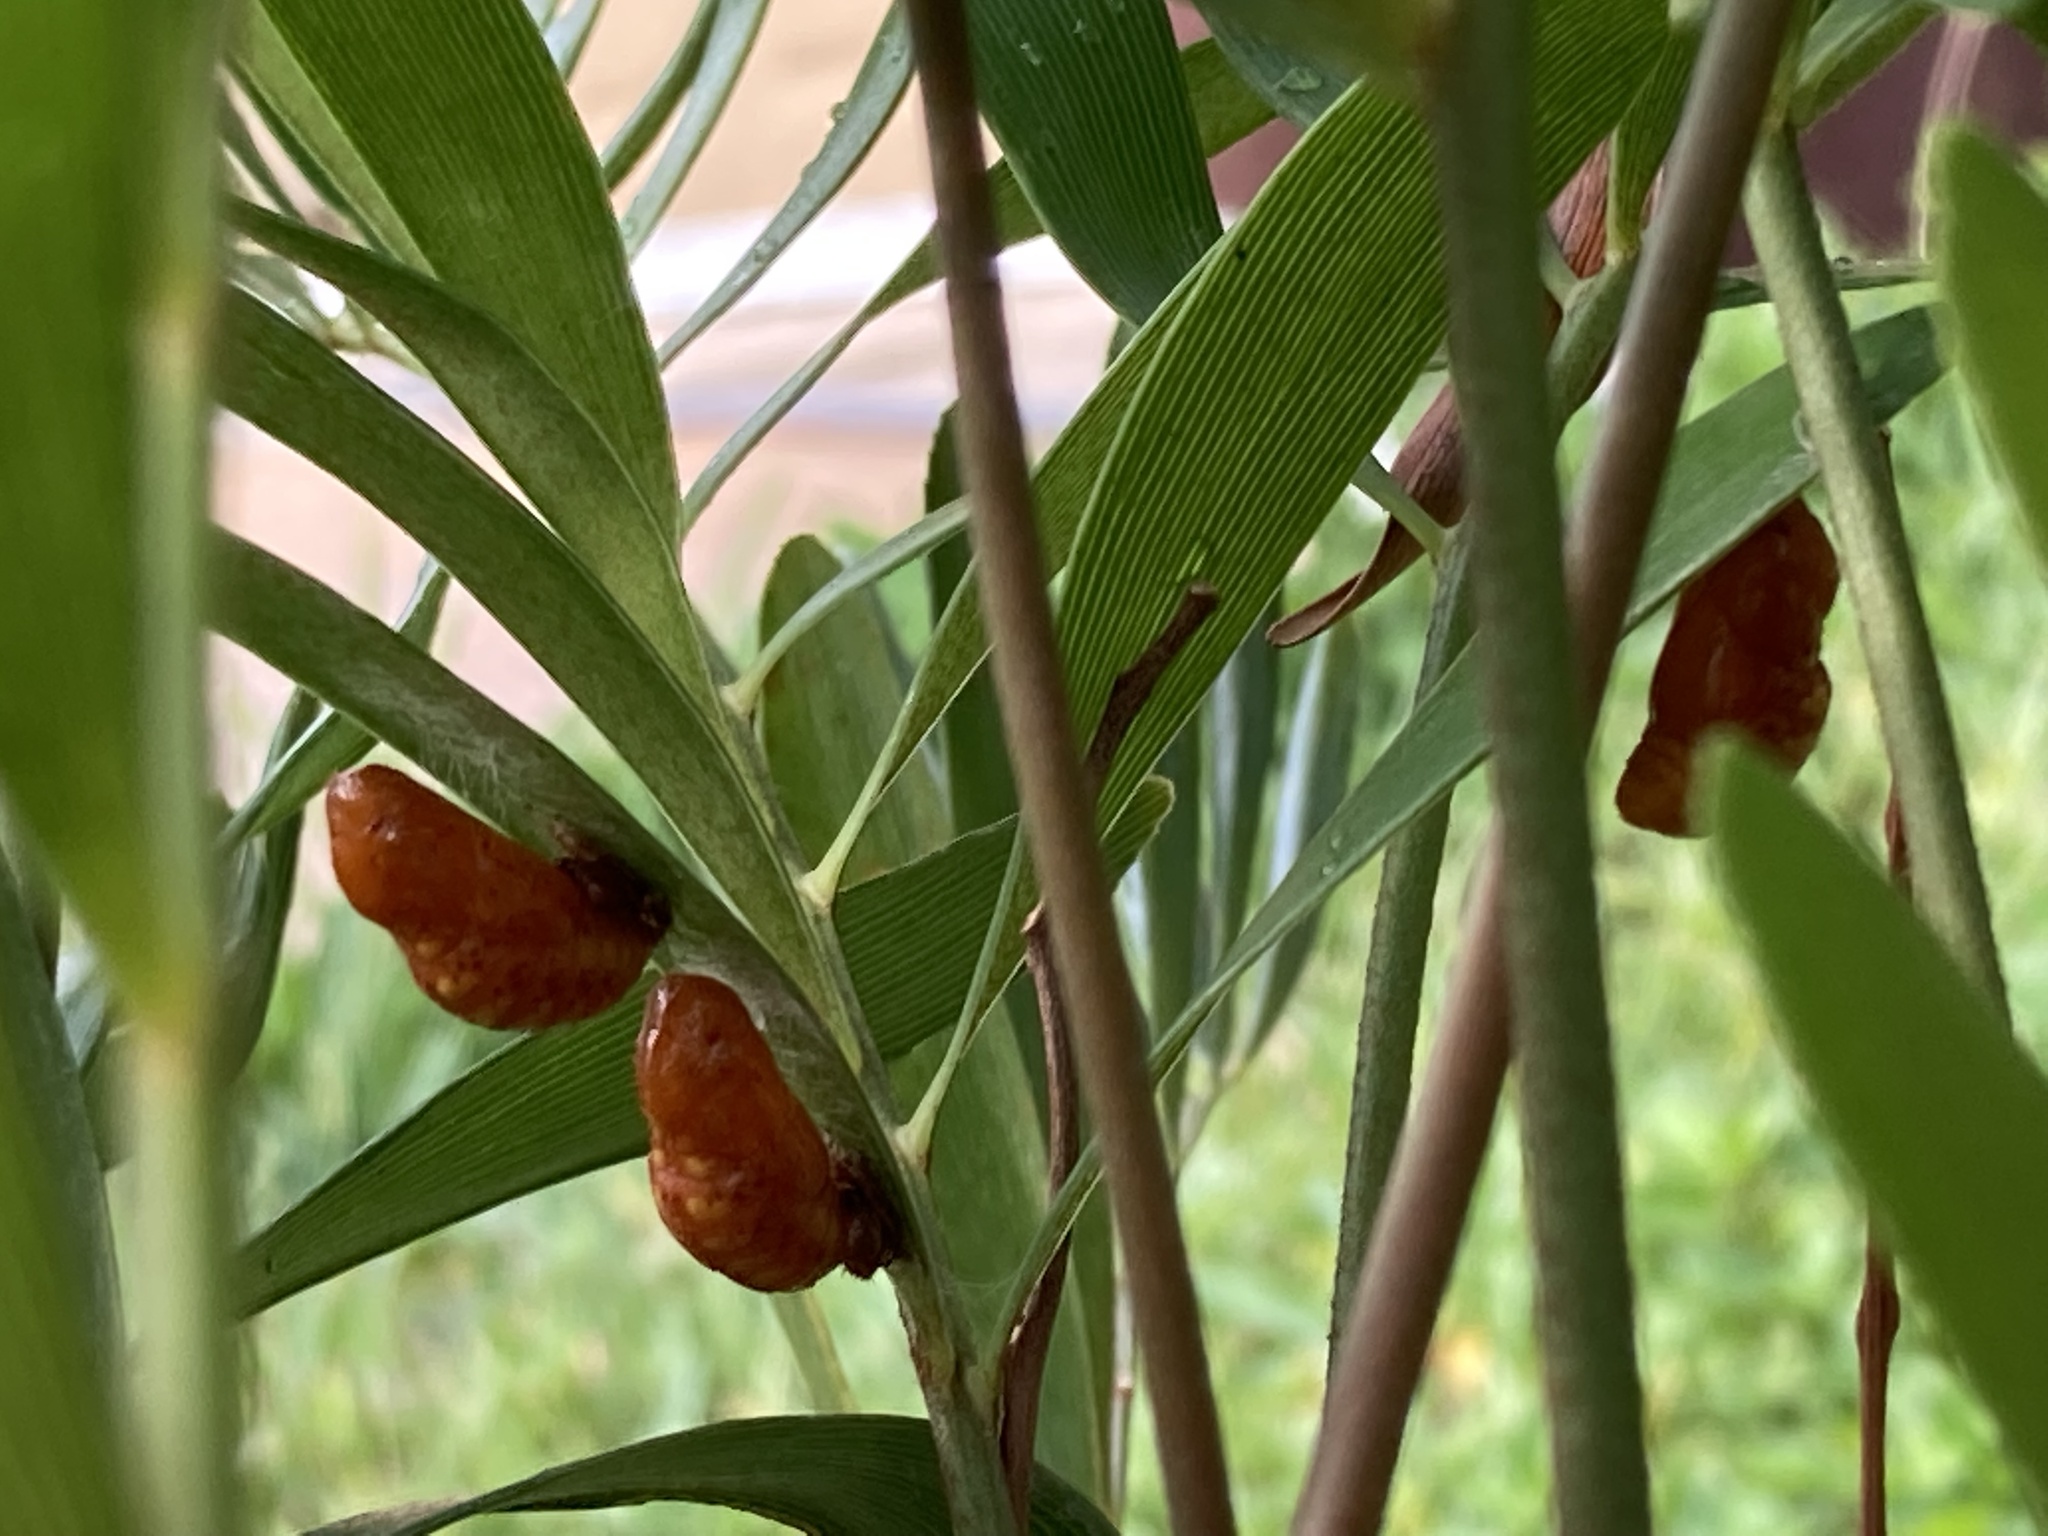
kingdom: Animalia
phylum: Arthropoda
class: Insecta
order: Lepidoptera
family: Lycaenidae
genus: Eumaeus
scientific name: Eumaeus atala
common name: Atala
